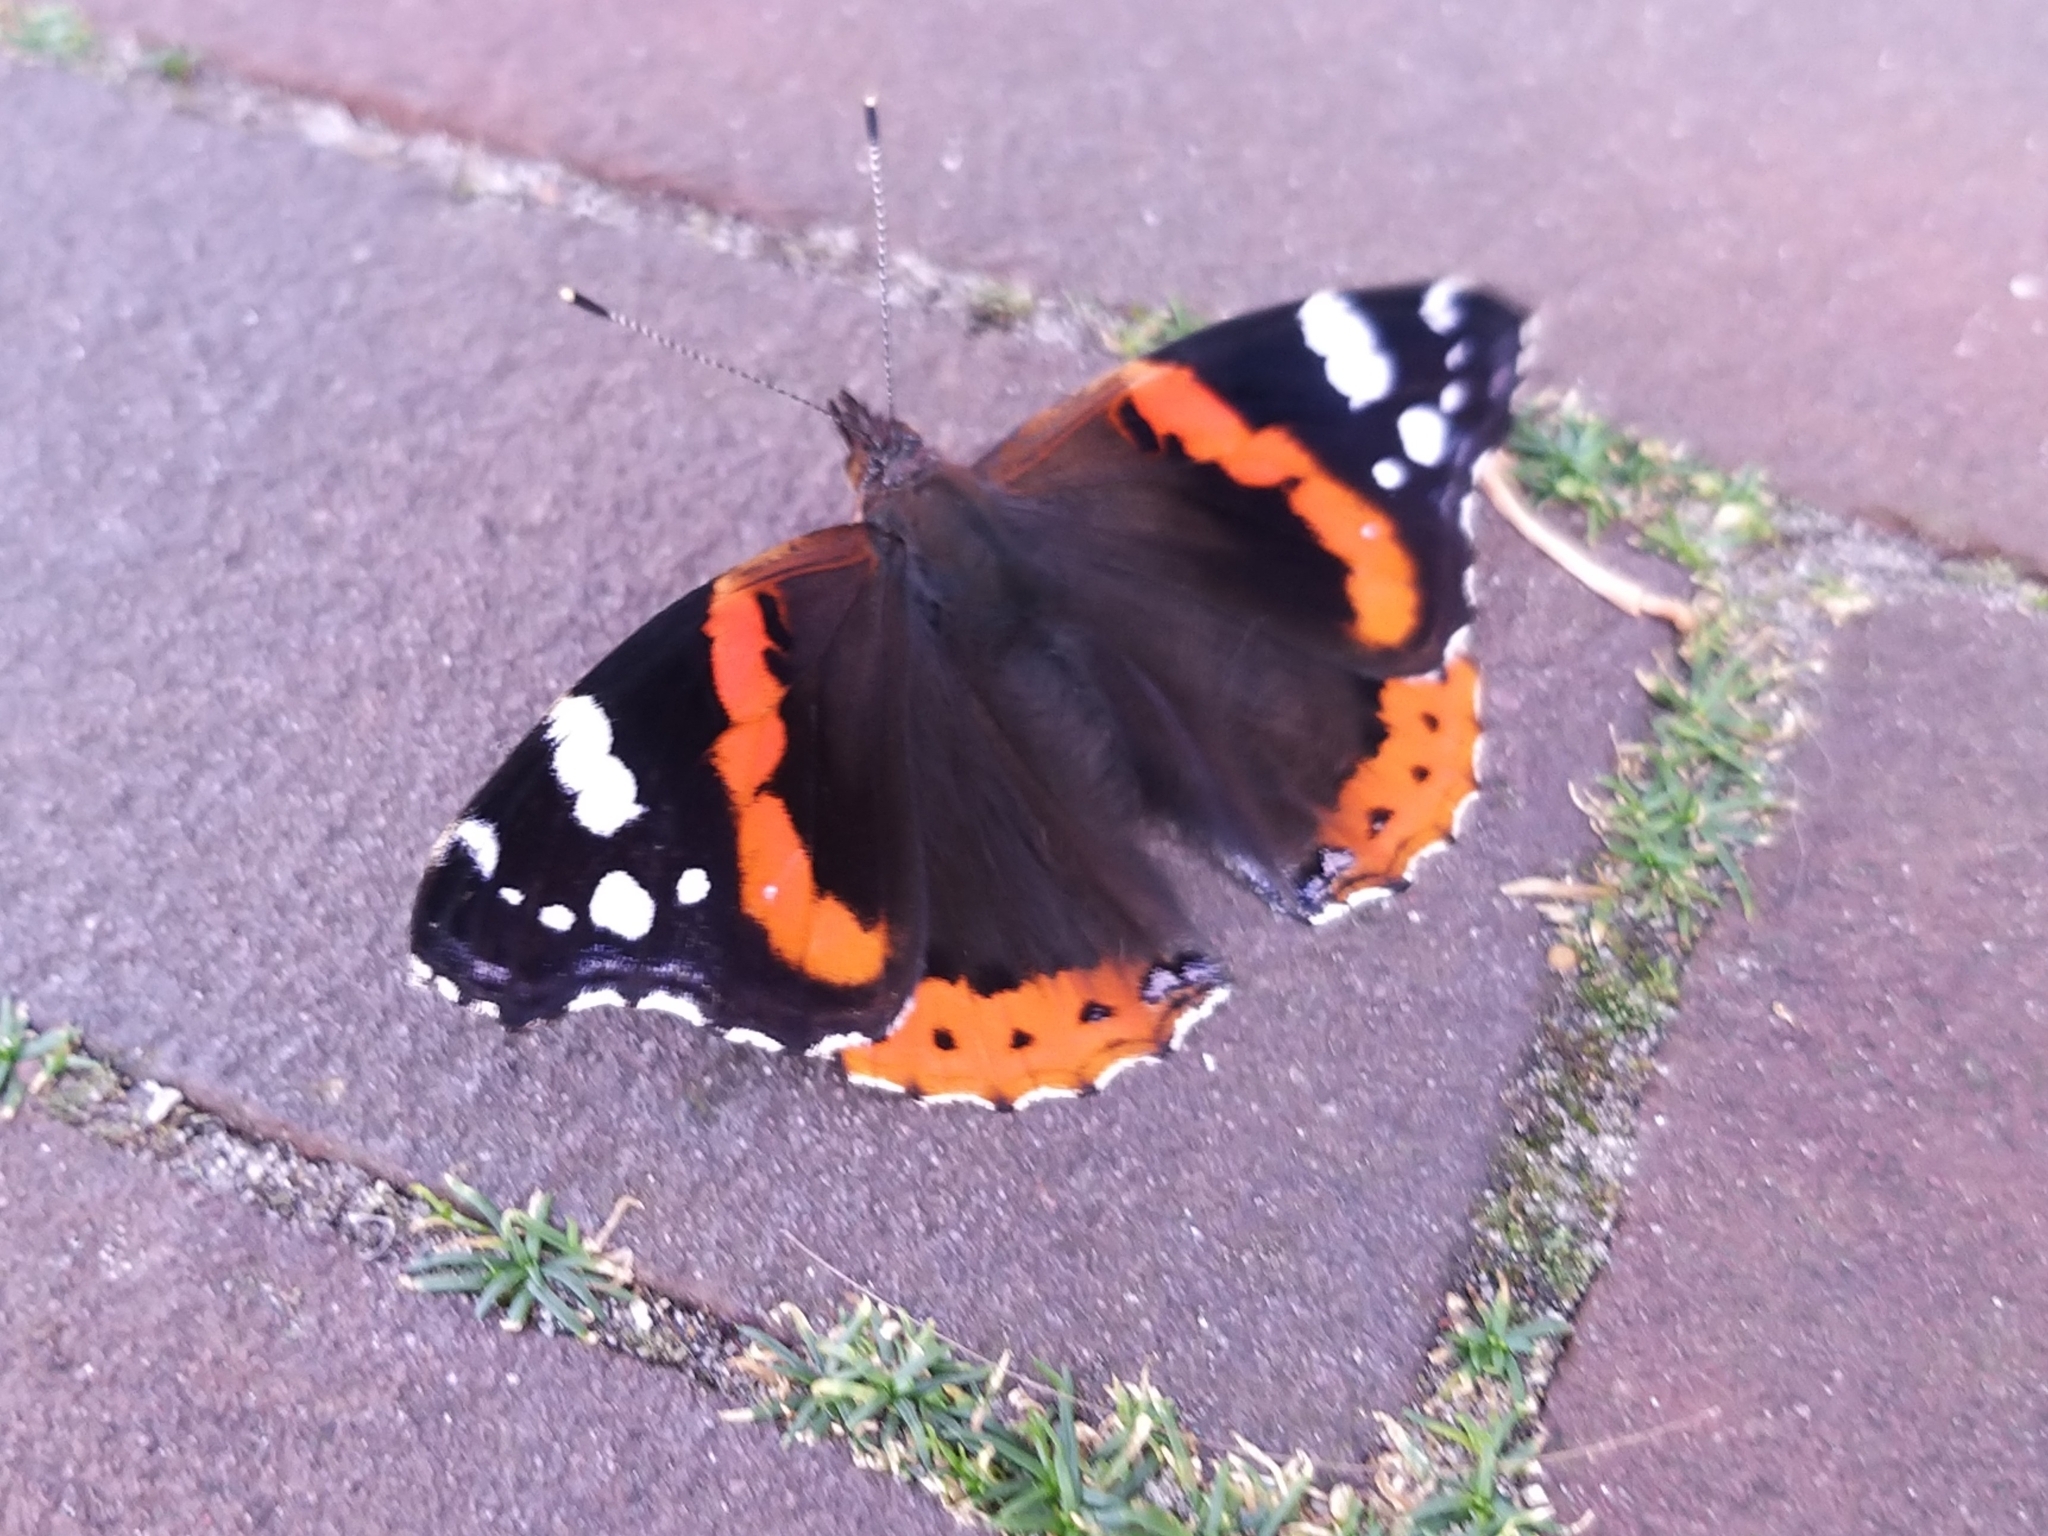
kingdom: Animalia
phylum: Arthropoda
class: Insecta
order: Lepidoptera
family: Nymphalidae
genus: Vanessa
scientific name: Vanessa atalanta
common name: Red admiral
